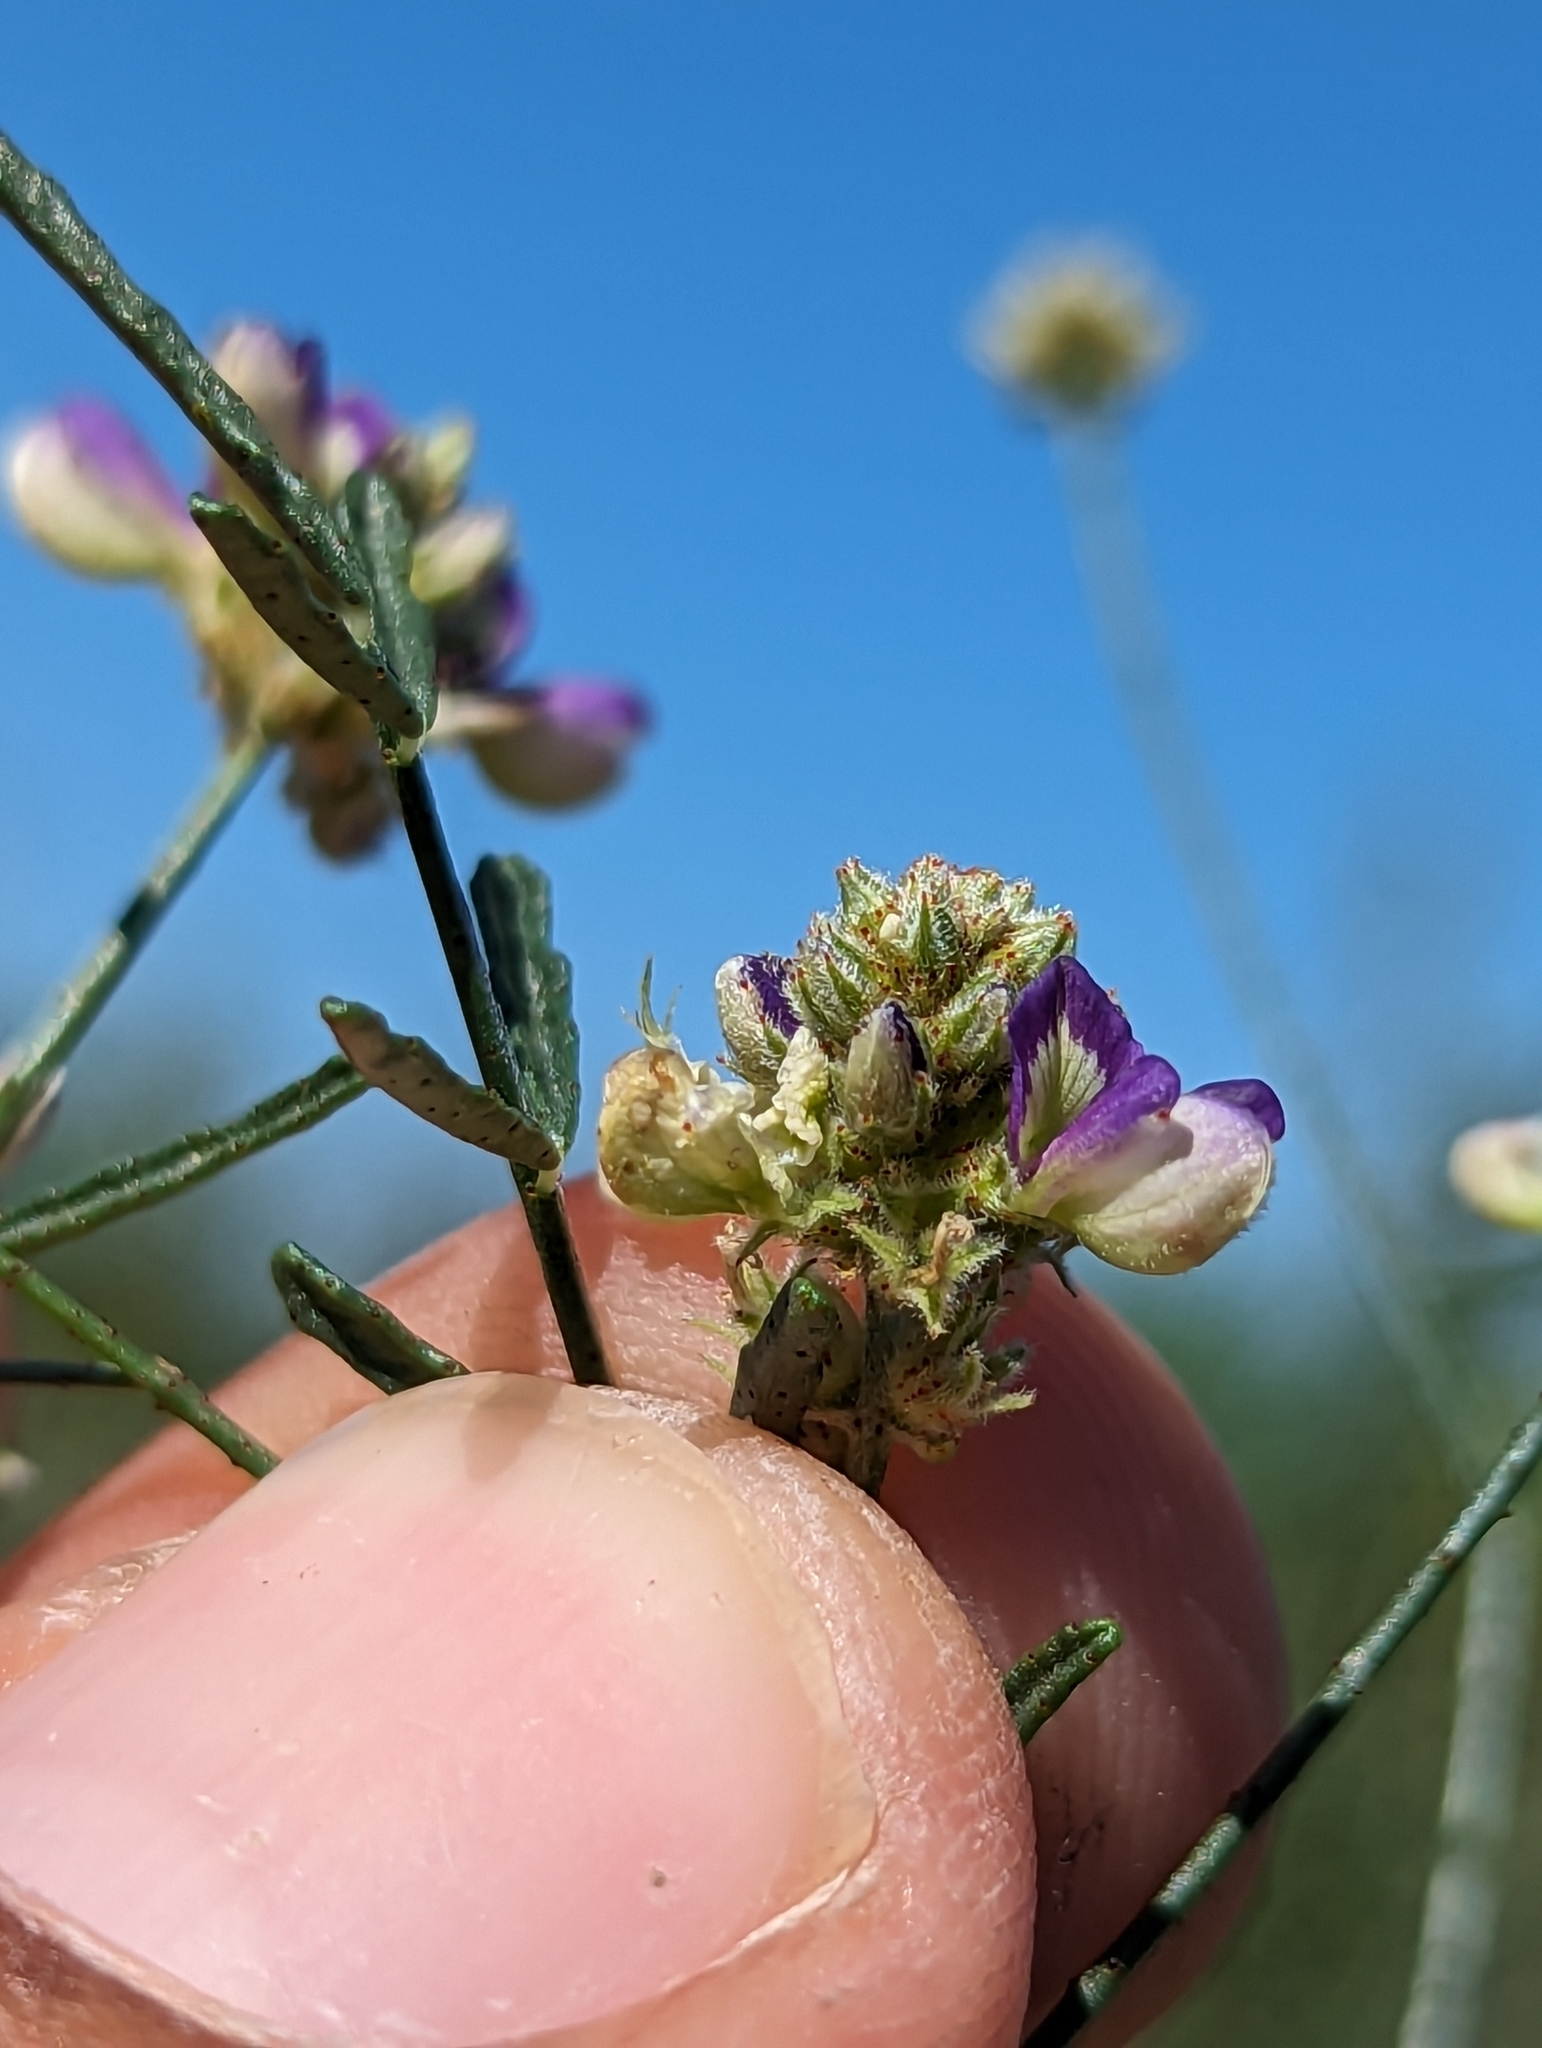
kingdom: Plantae
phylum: Tracheophyta
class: Magnoliopsida
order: Fabales
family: Fabaceae
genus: Psorothamnus
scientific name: Psorothamnus emoryi
